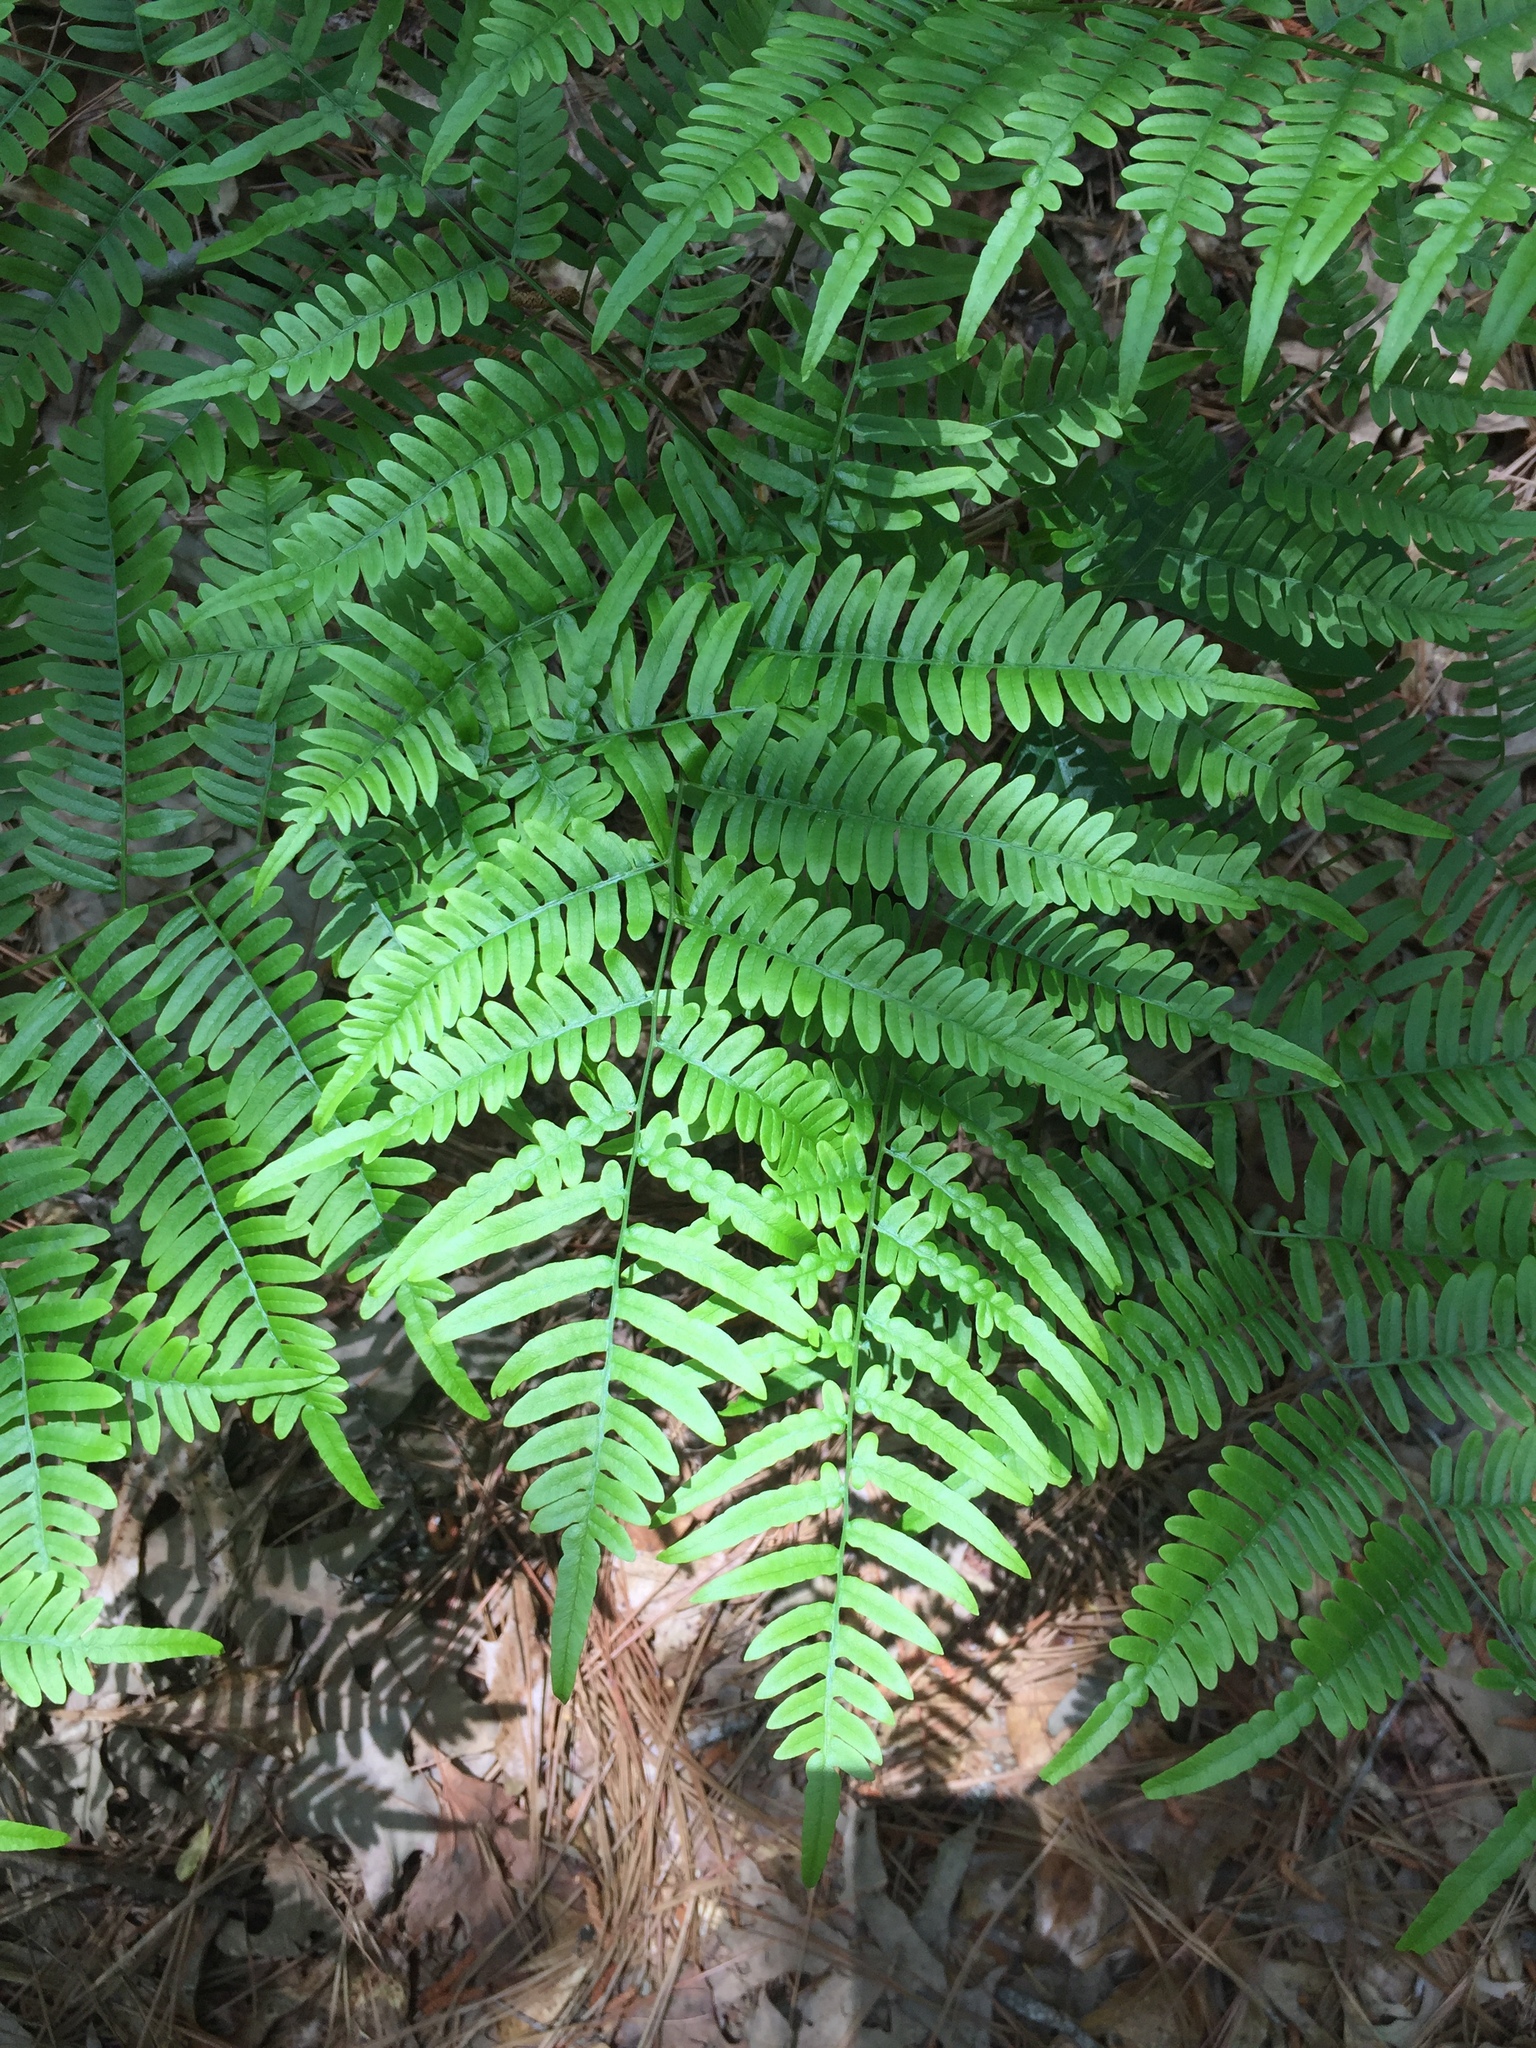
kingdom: Plantae
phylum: Tracheophyta
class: Polypodiopsida
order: Polypodiales
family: Dennstaedtiaceae
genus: Pteridium
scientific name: Pteridium aquilinum
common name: Bracken
